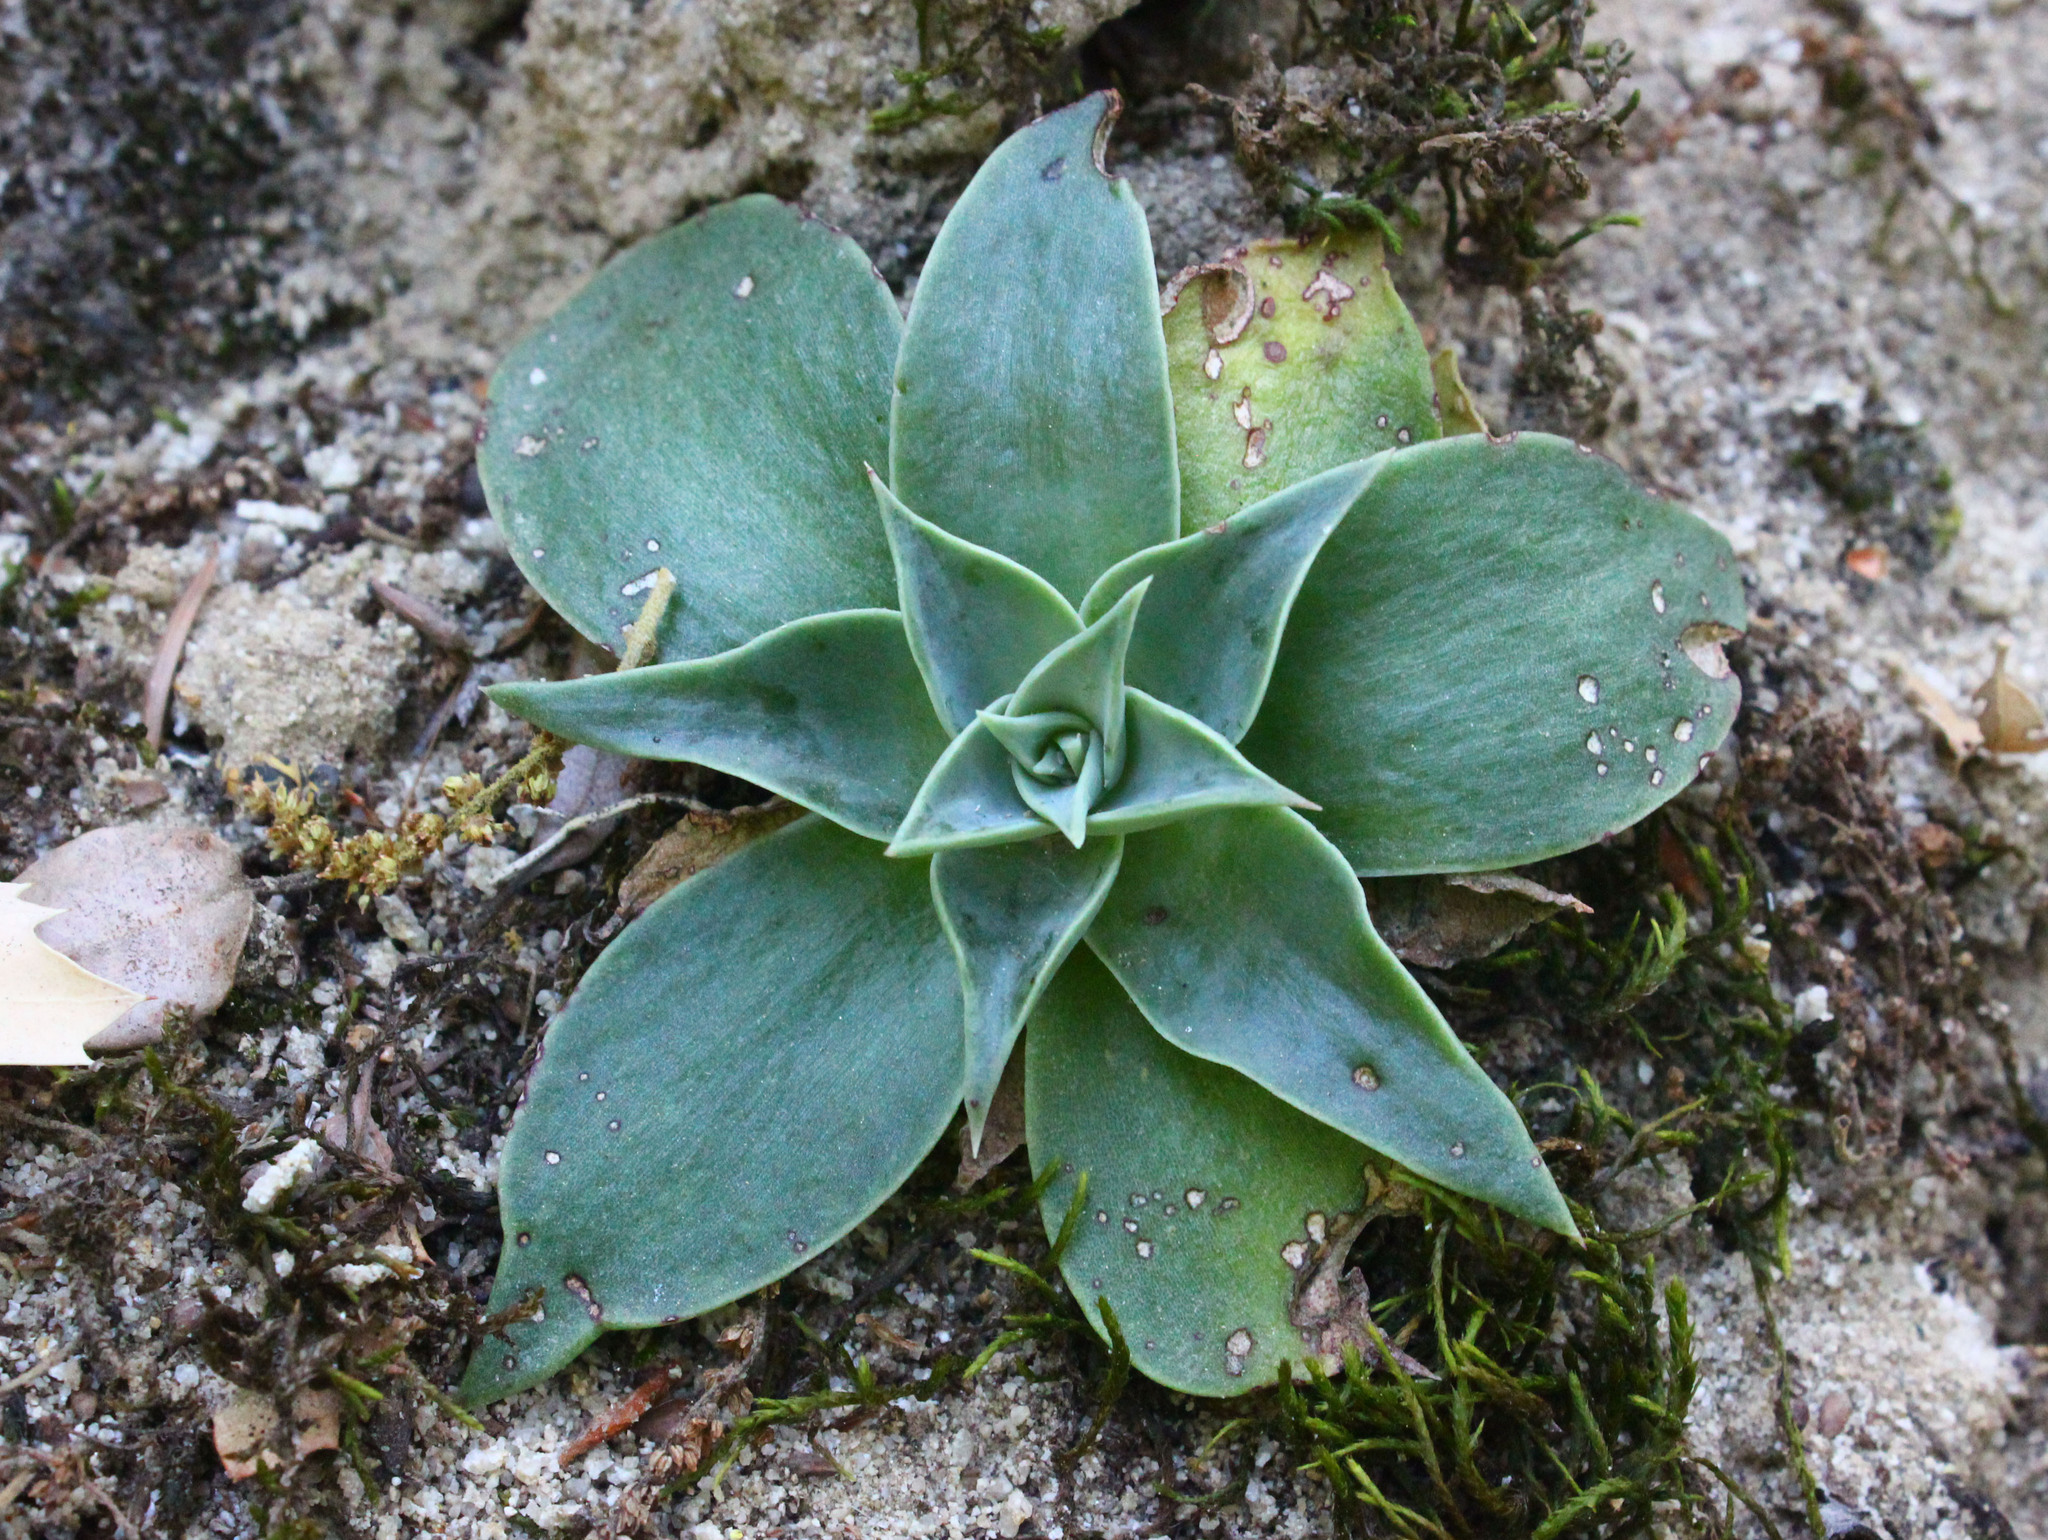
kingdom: Plantae
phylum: Tracheophyta
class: Magnoliopsida
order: Saxifragales
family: Crassulaceae
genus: Dudleya
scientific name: Dudleya cymosa
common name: Canyon dudleya
